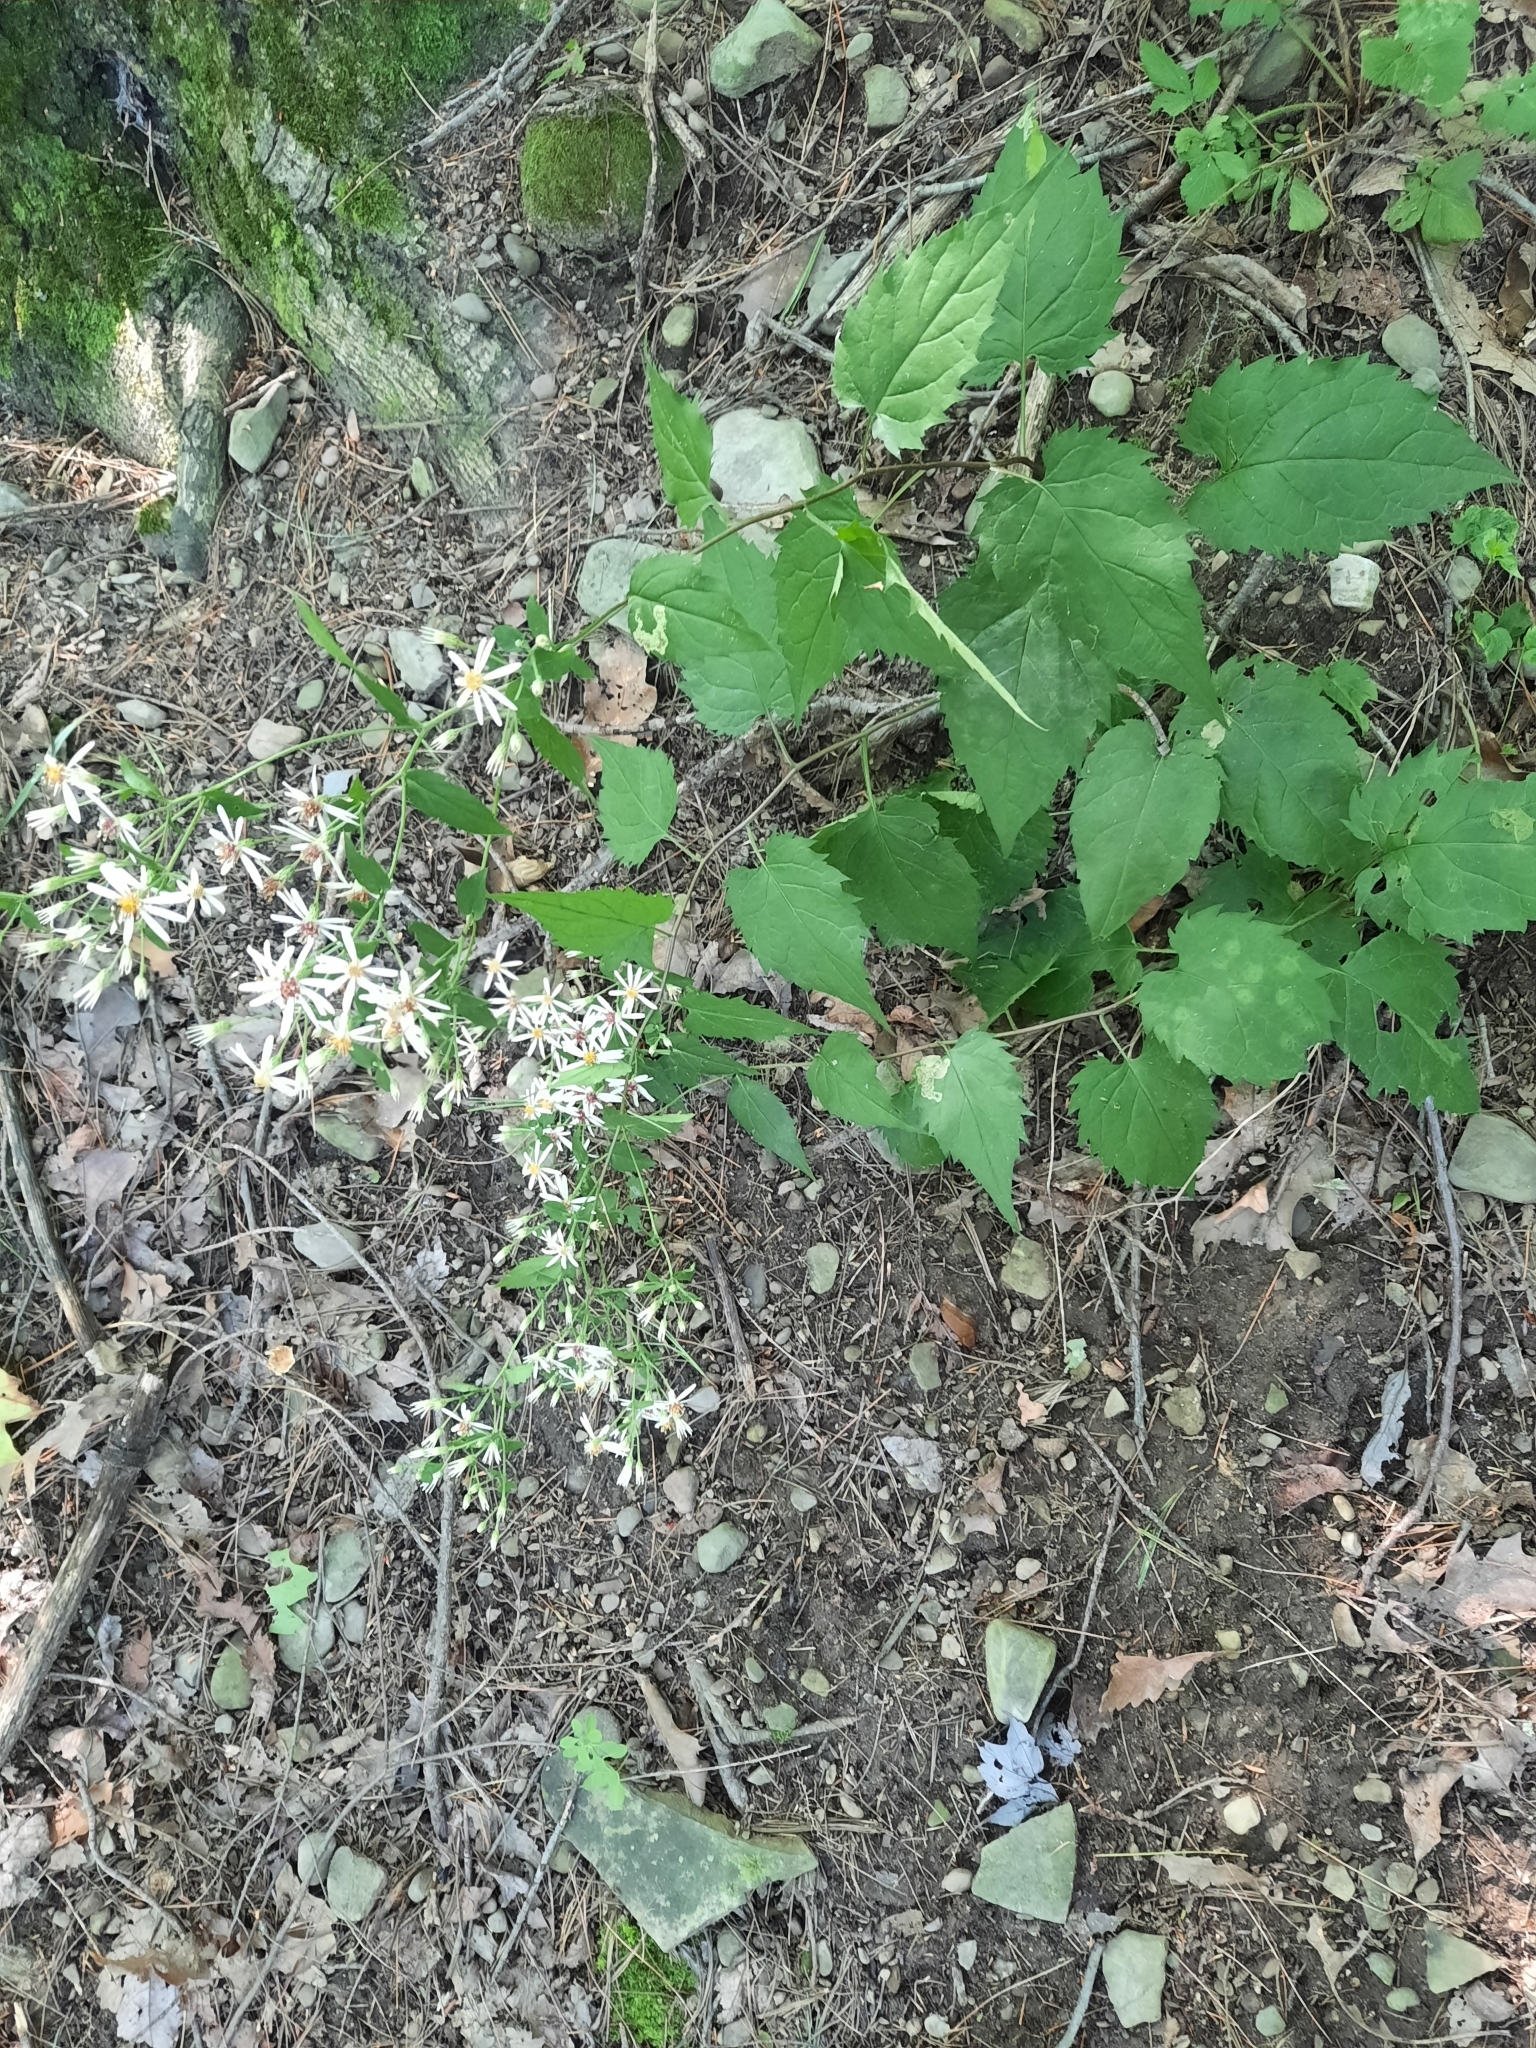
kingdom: Plantae
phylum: Tracheophyta
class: Magnoliopsida
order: Asterales
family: Asteraceae
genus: Eurybia
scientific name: Eurybia divaricata
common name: White wood aster
